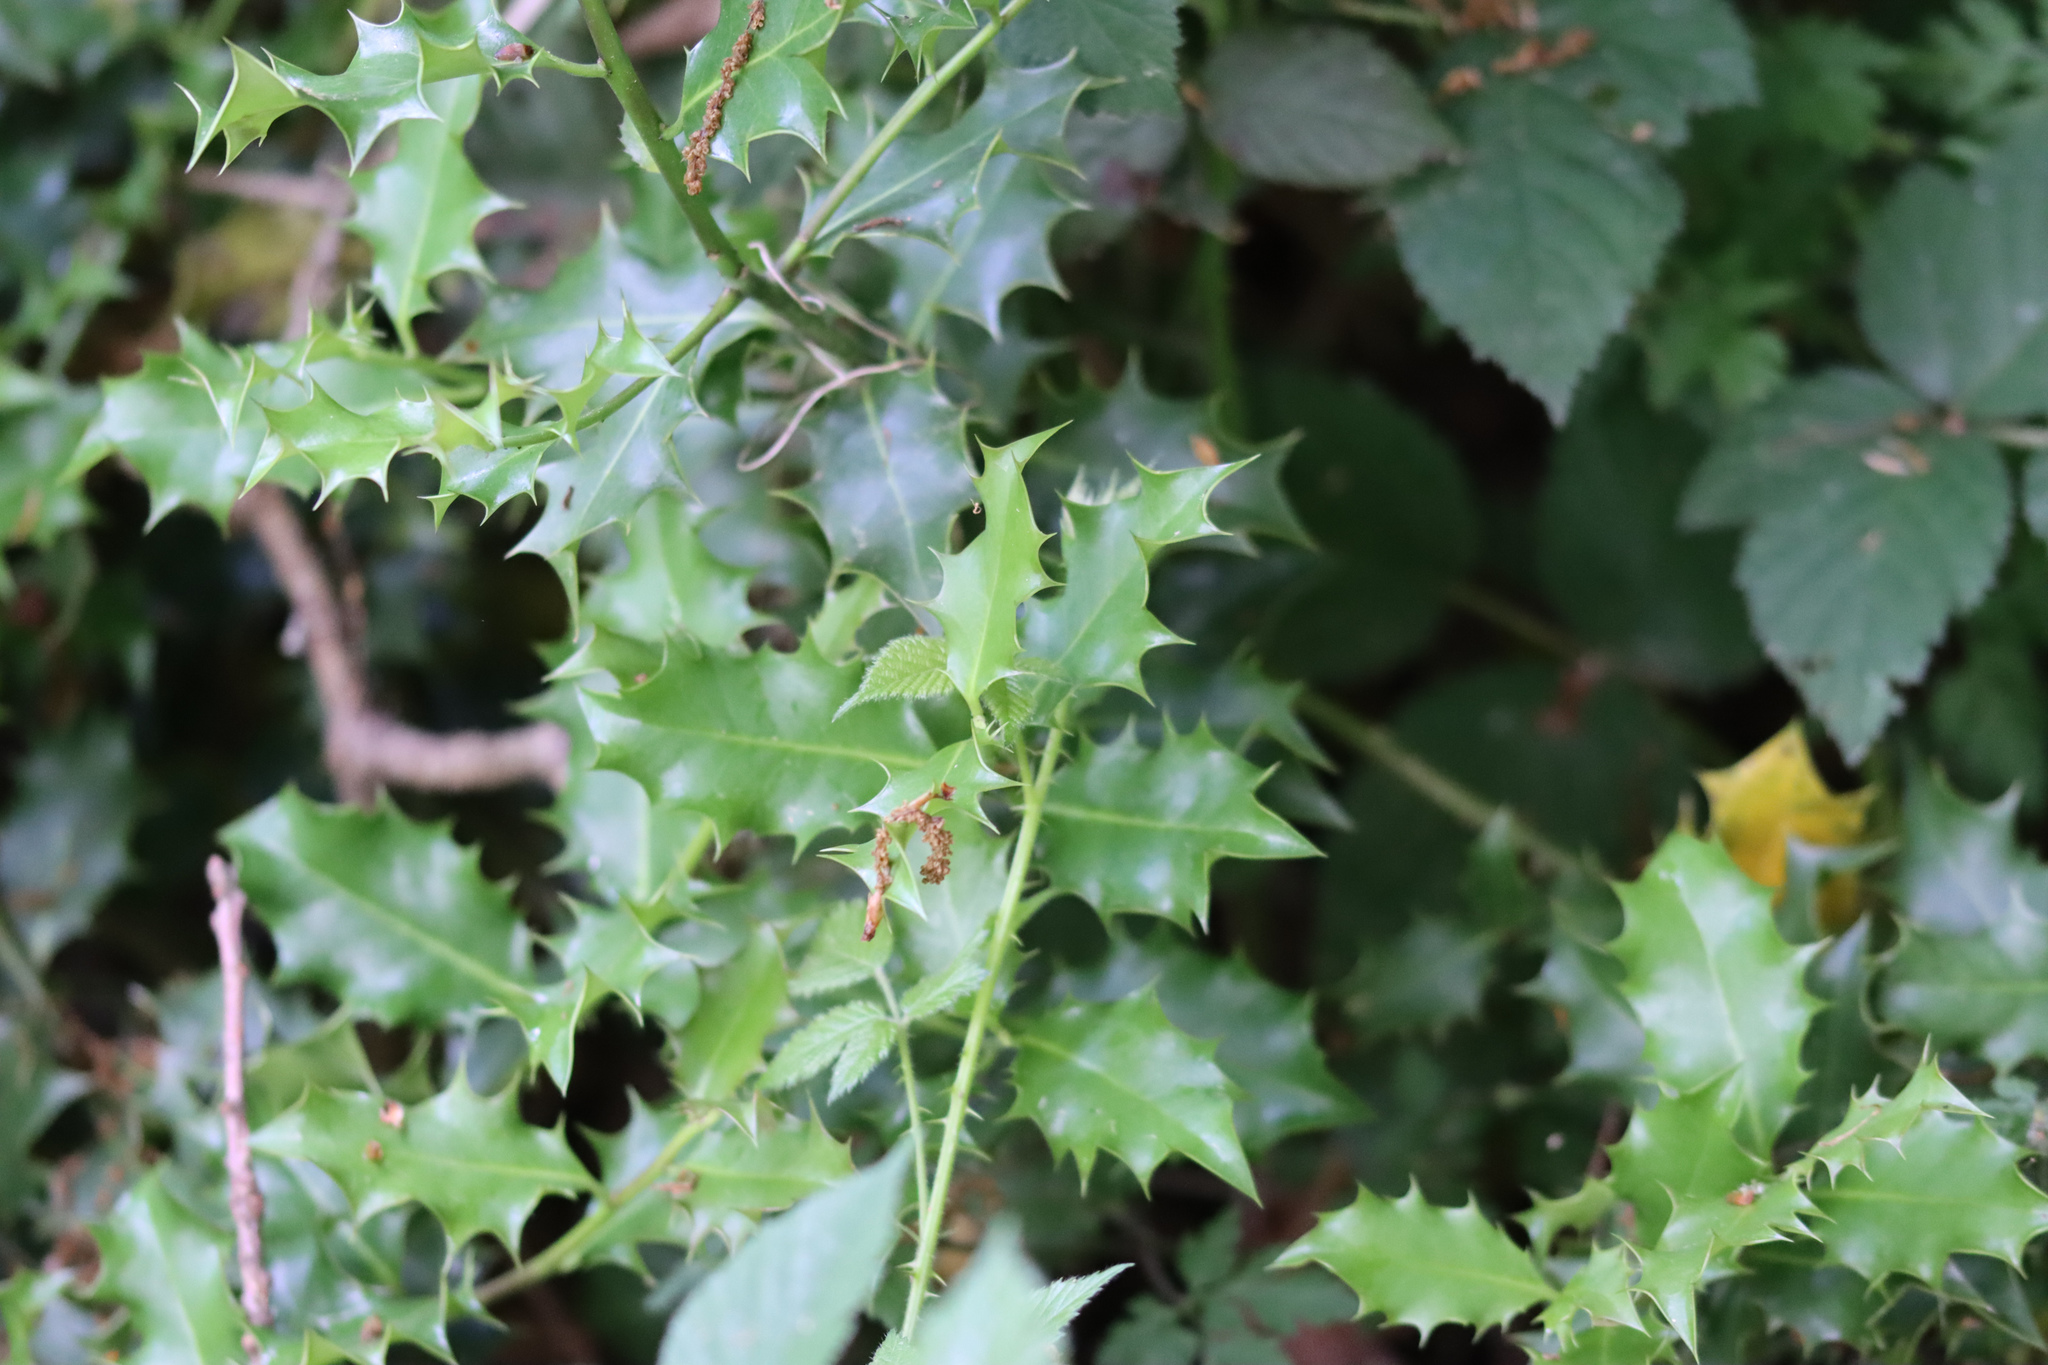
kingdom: Plantae
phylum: Tracheophyta
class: Magnoliopsida
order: Aquifoliales
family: Aquifoliaceae
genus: Ilex
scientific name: Ilex aquifolium
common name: English holly
